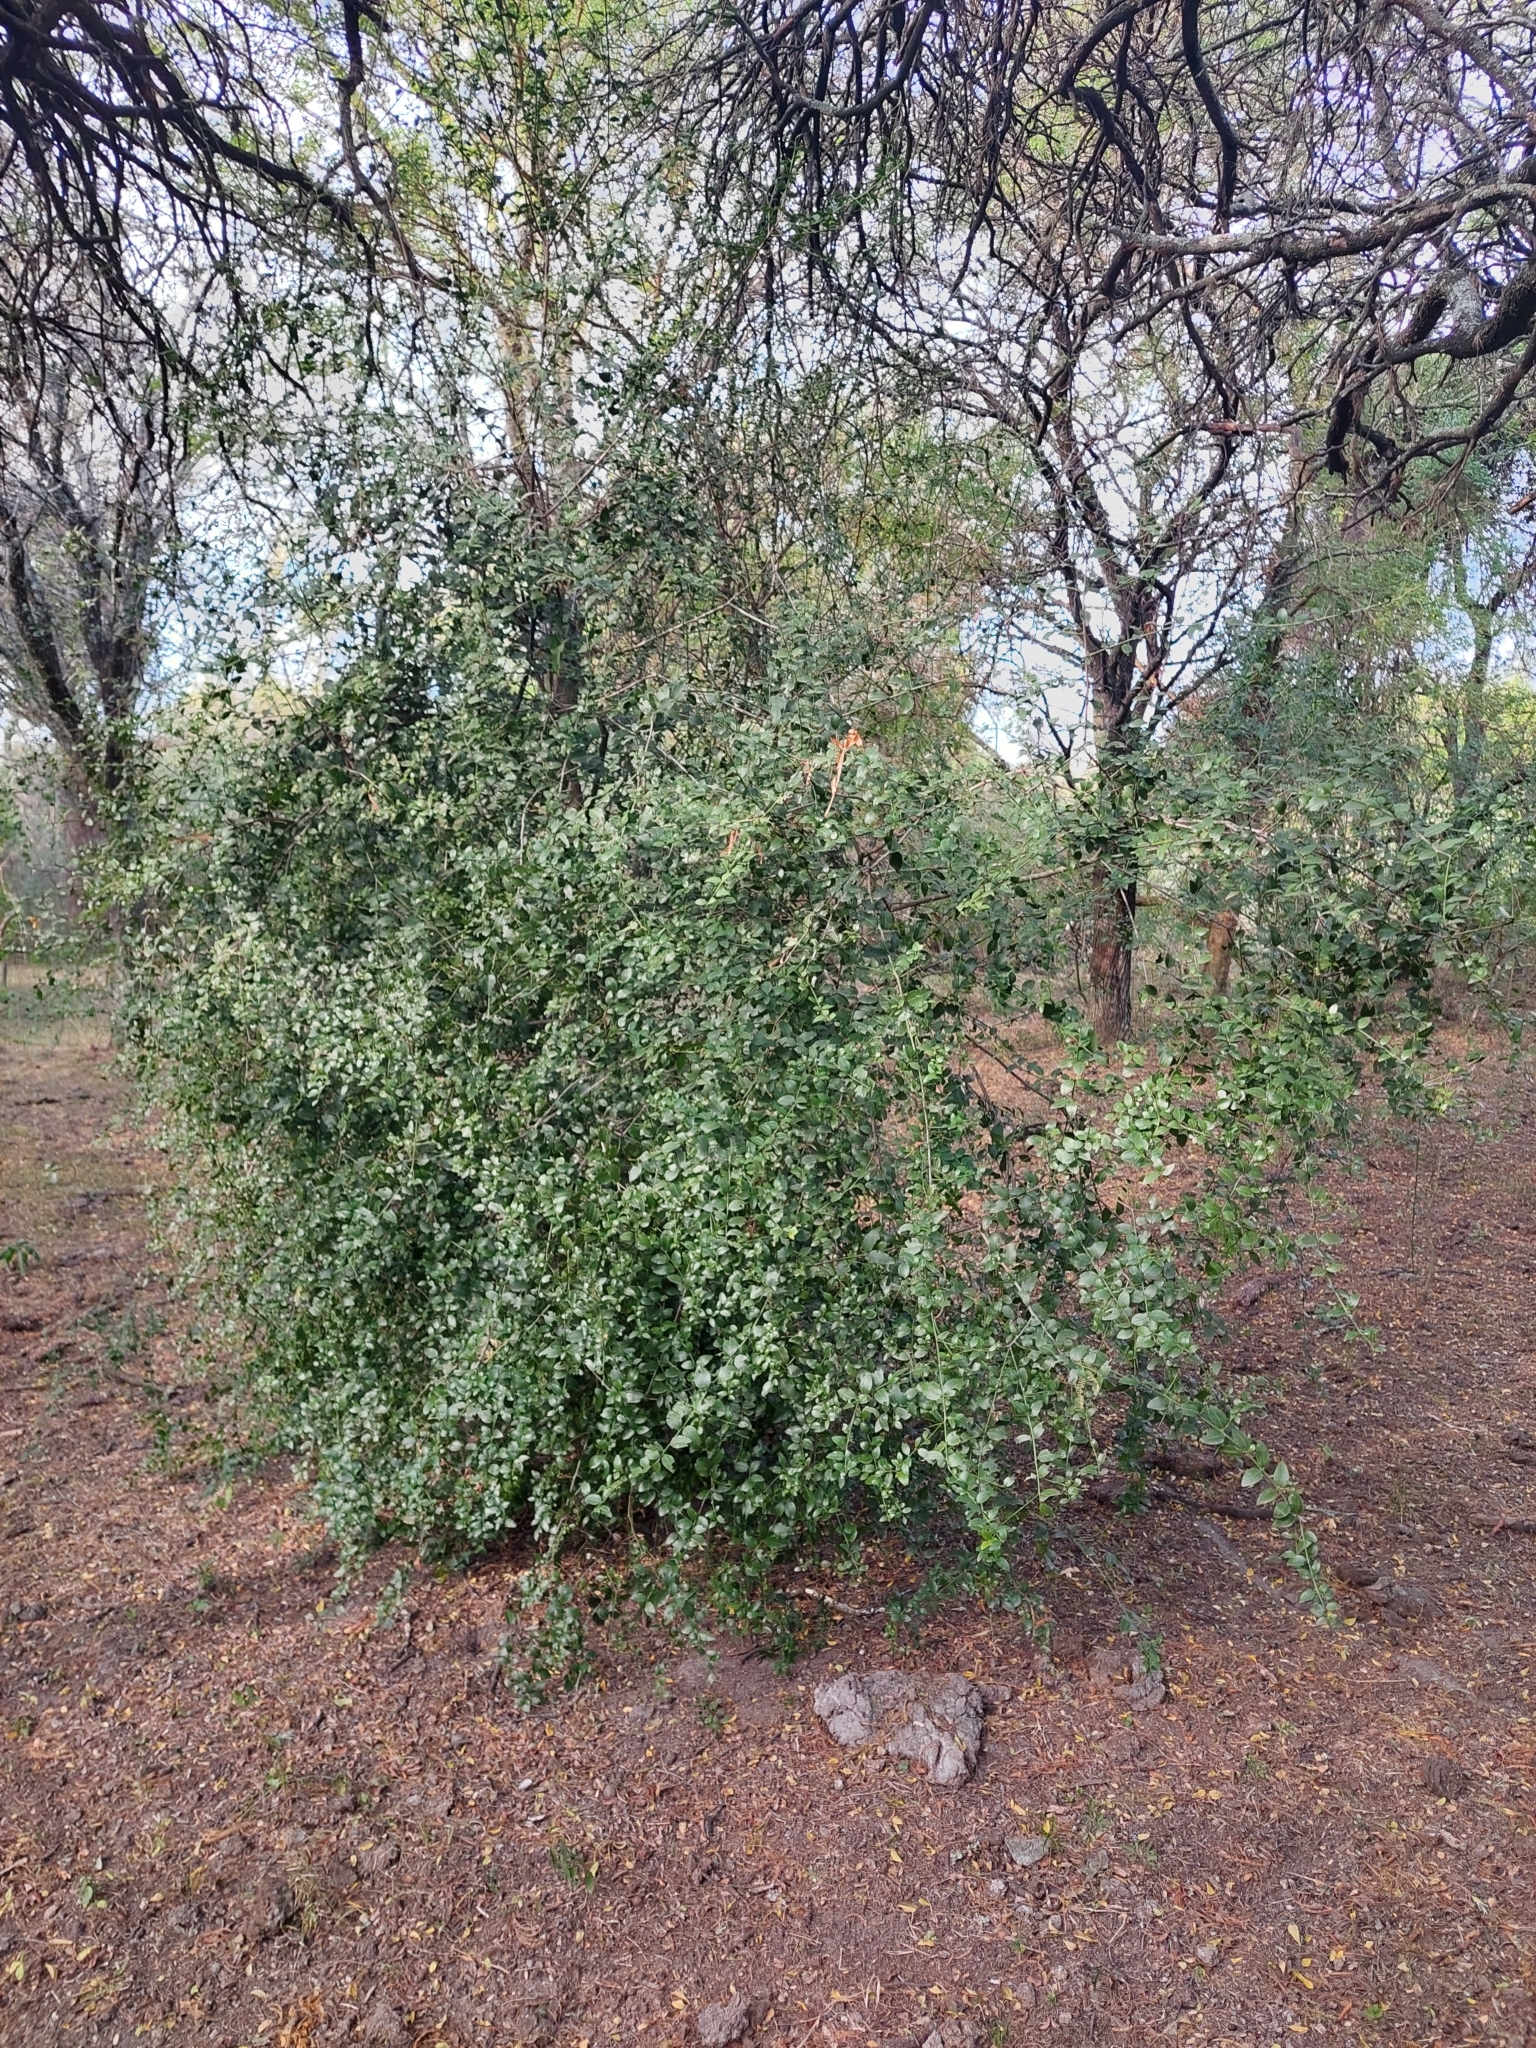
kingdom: Plantae
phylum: Tracheophyta
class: Magnoliopsida
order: Rosales
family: Rhamnaceae
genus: Scutia
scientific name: Scutia buxifolia
